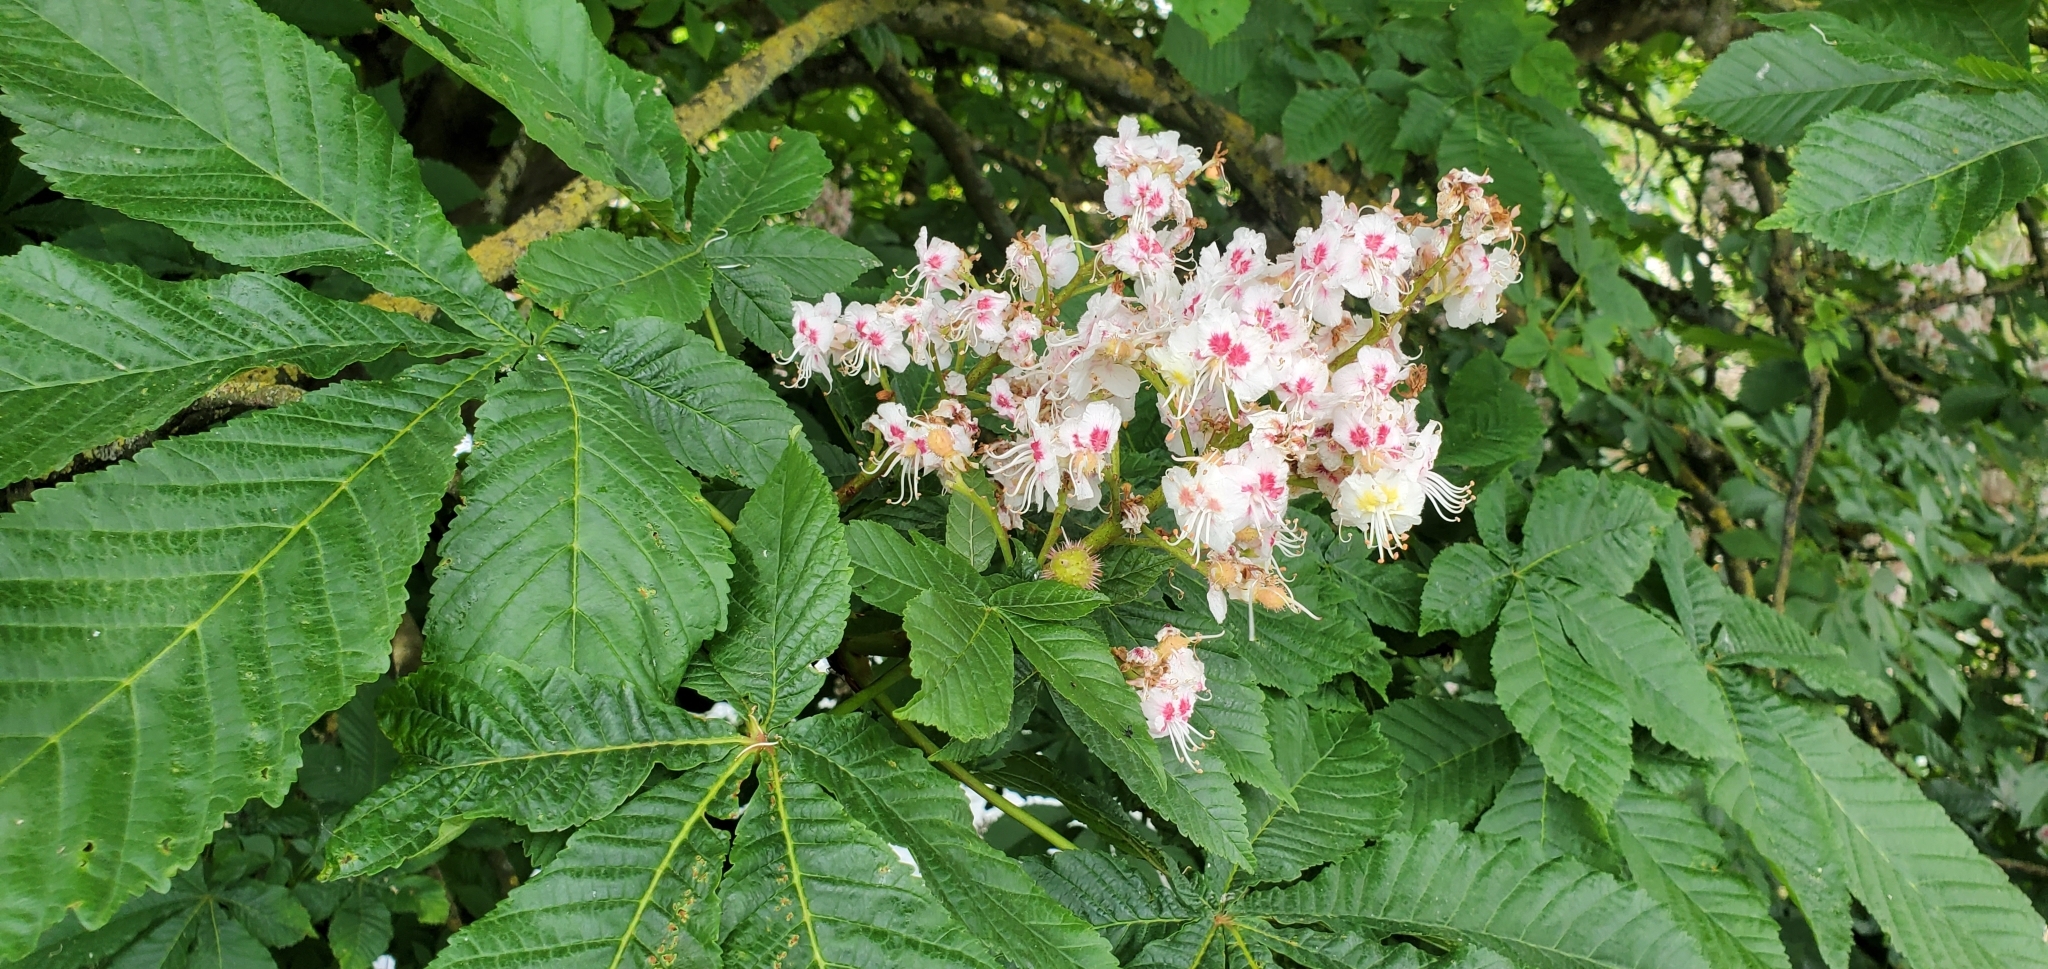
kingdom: Plantae
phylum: Tracheophyta
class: Magnoliopsida
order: Sapindales
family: Sapindaceae
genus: Aesculus
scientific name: Aesculus hippocastanum
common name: Horse-chestnut
